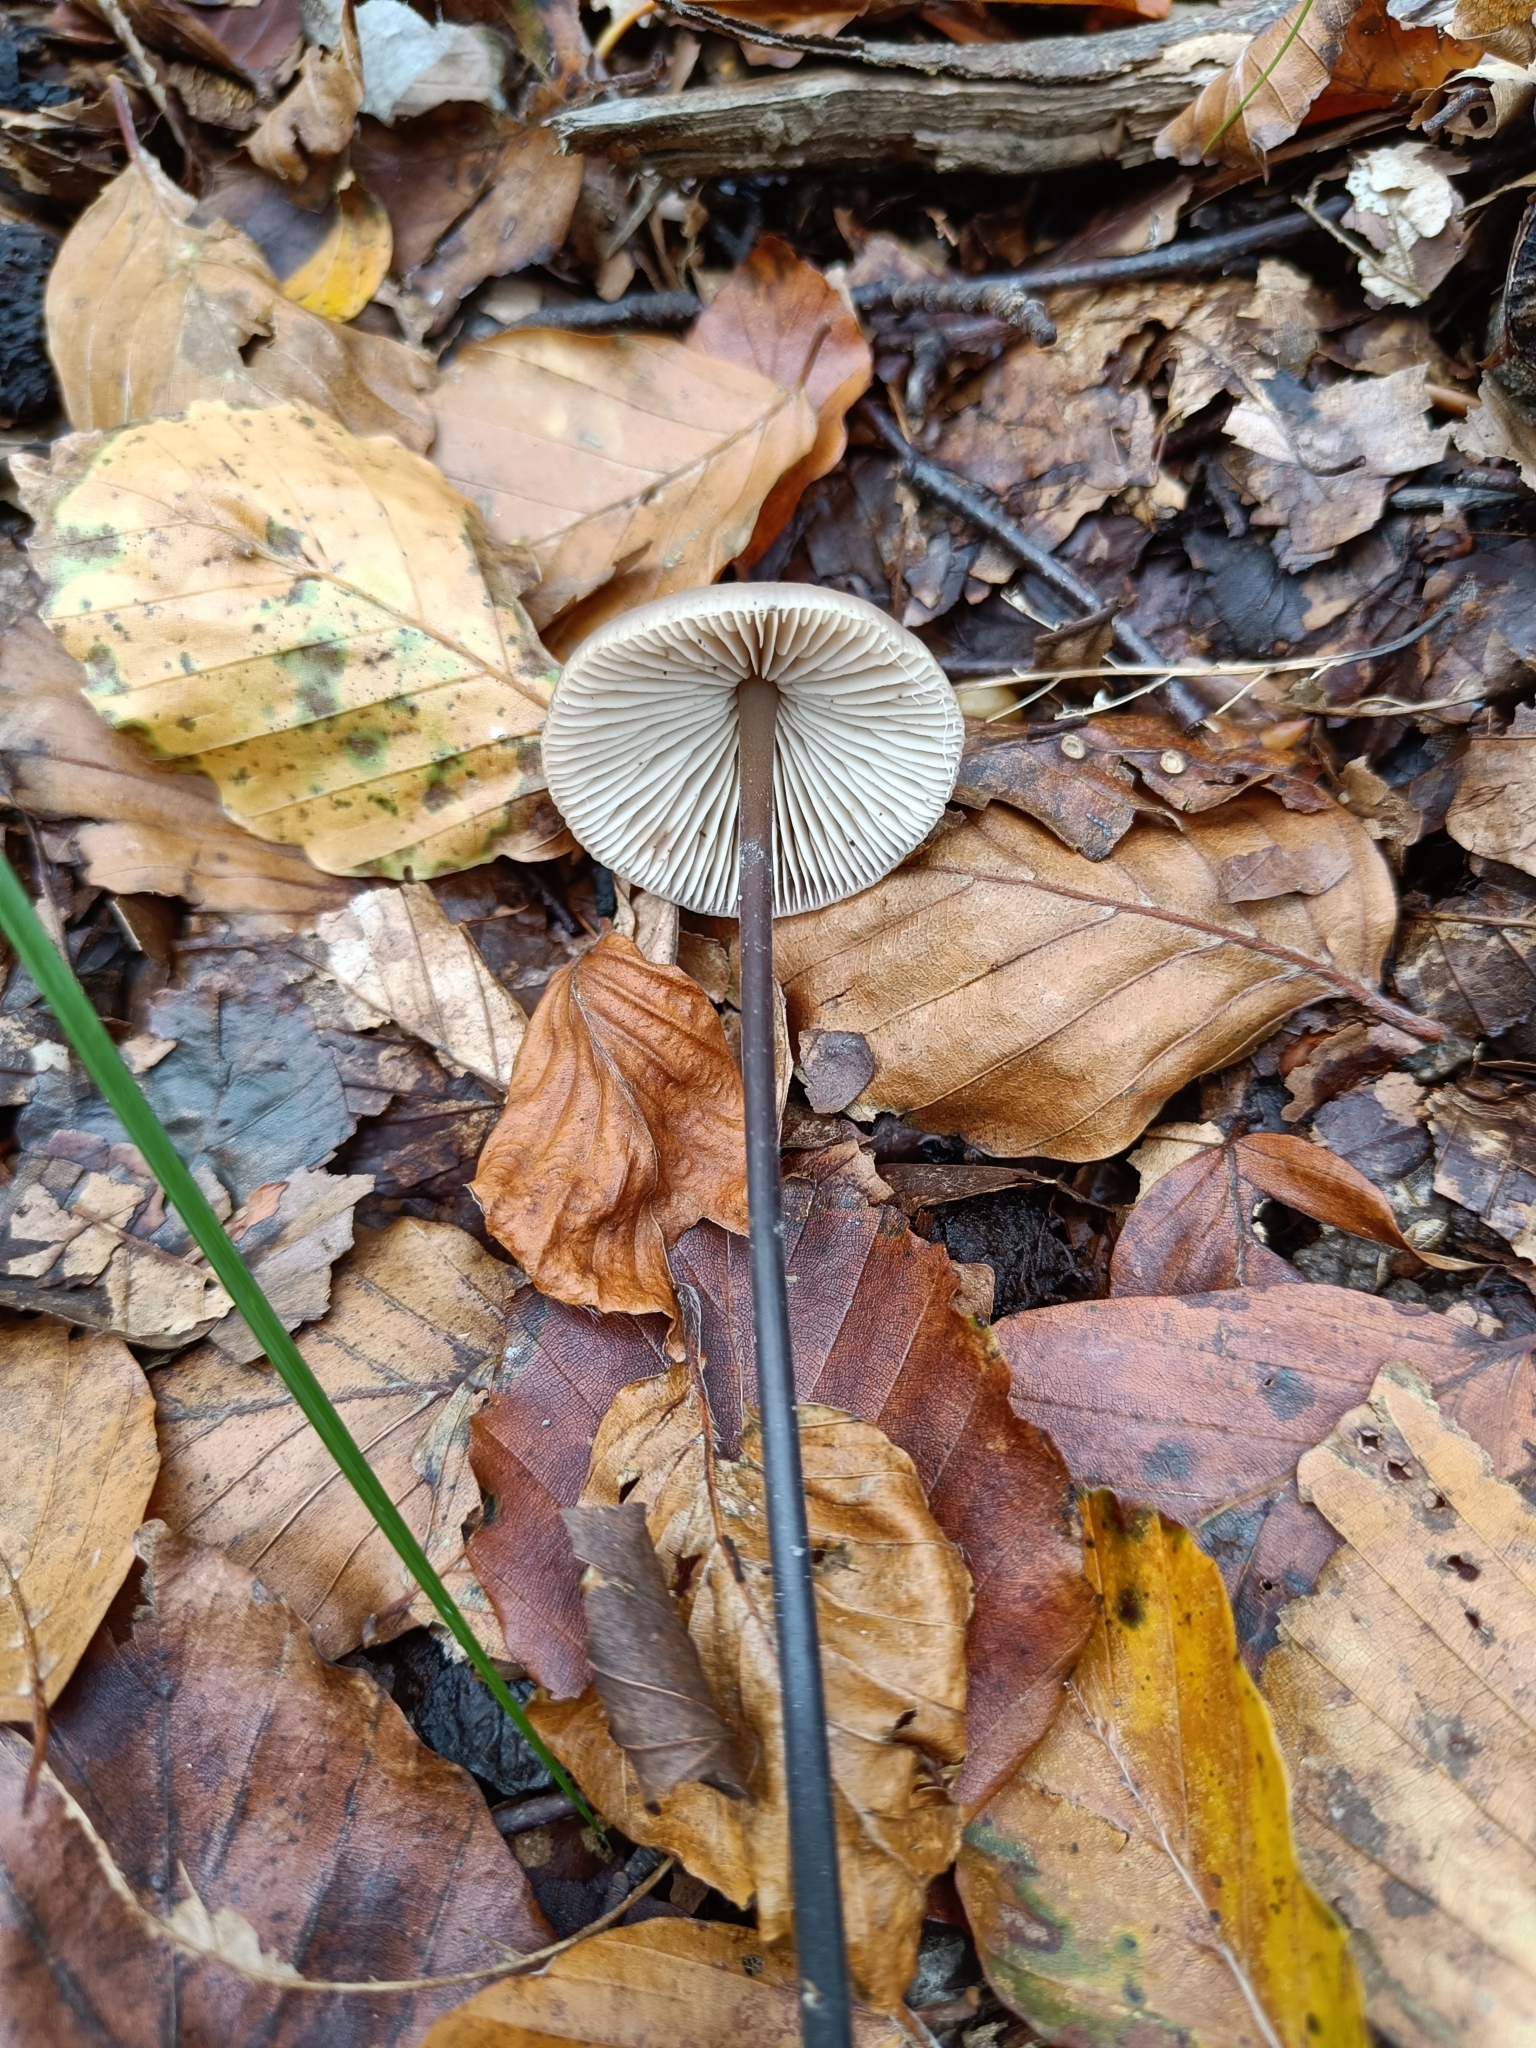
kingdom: Fungi
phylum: Basidiomycota
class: Agaricomycetes
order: Agaricales
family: Omphalotaceae
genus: Mycetinis
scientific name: Mycetinis alliaceus
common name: Garlic parachute
